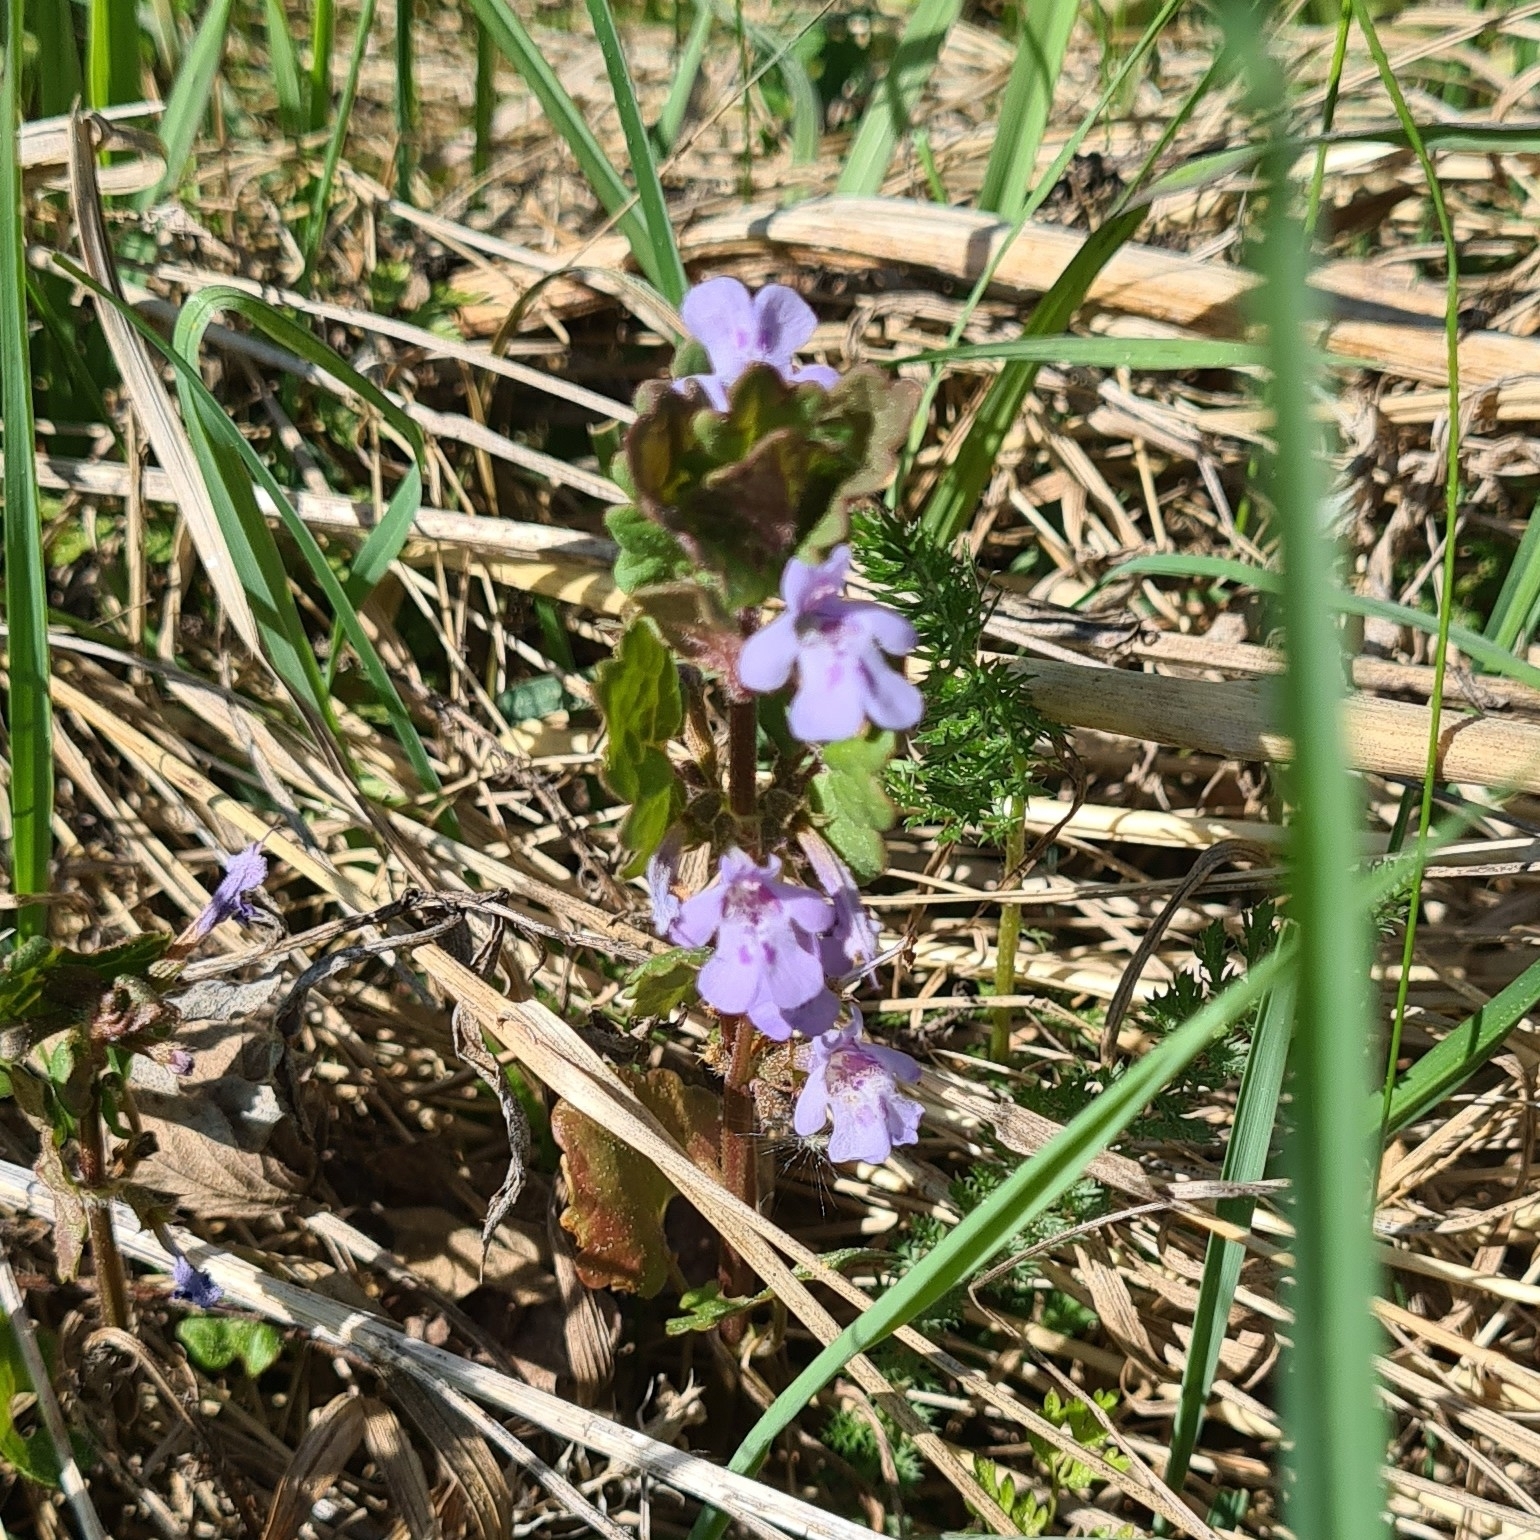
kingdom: Plantae
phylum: Tracheophyta
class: Magnoliopsida
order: Lamiales
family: Lamiaceae
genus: Glechoma
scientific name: Glechoma hederacea
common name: Ground ivy
